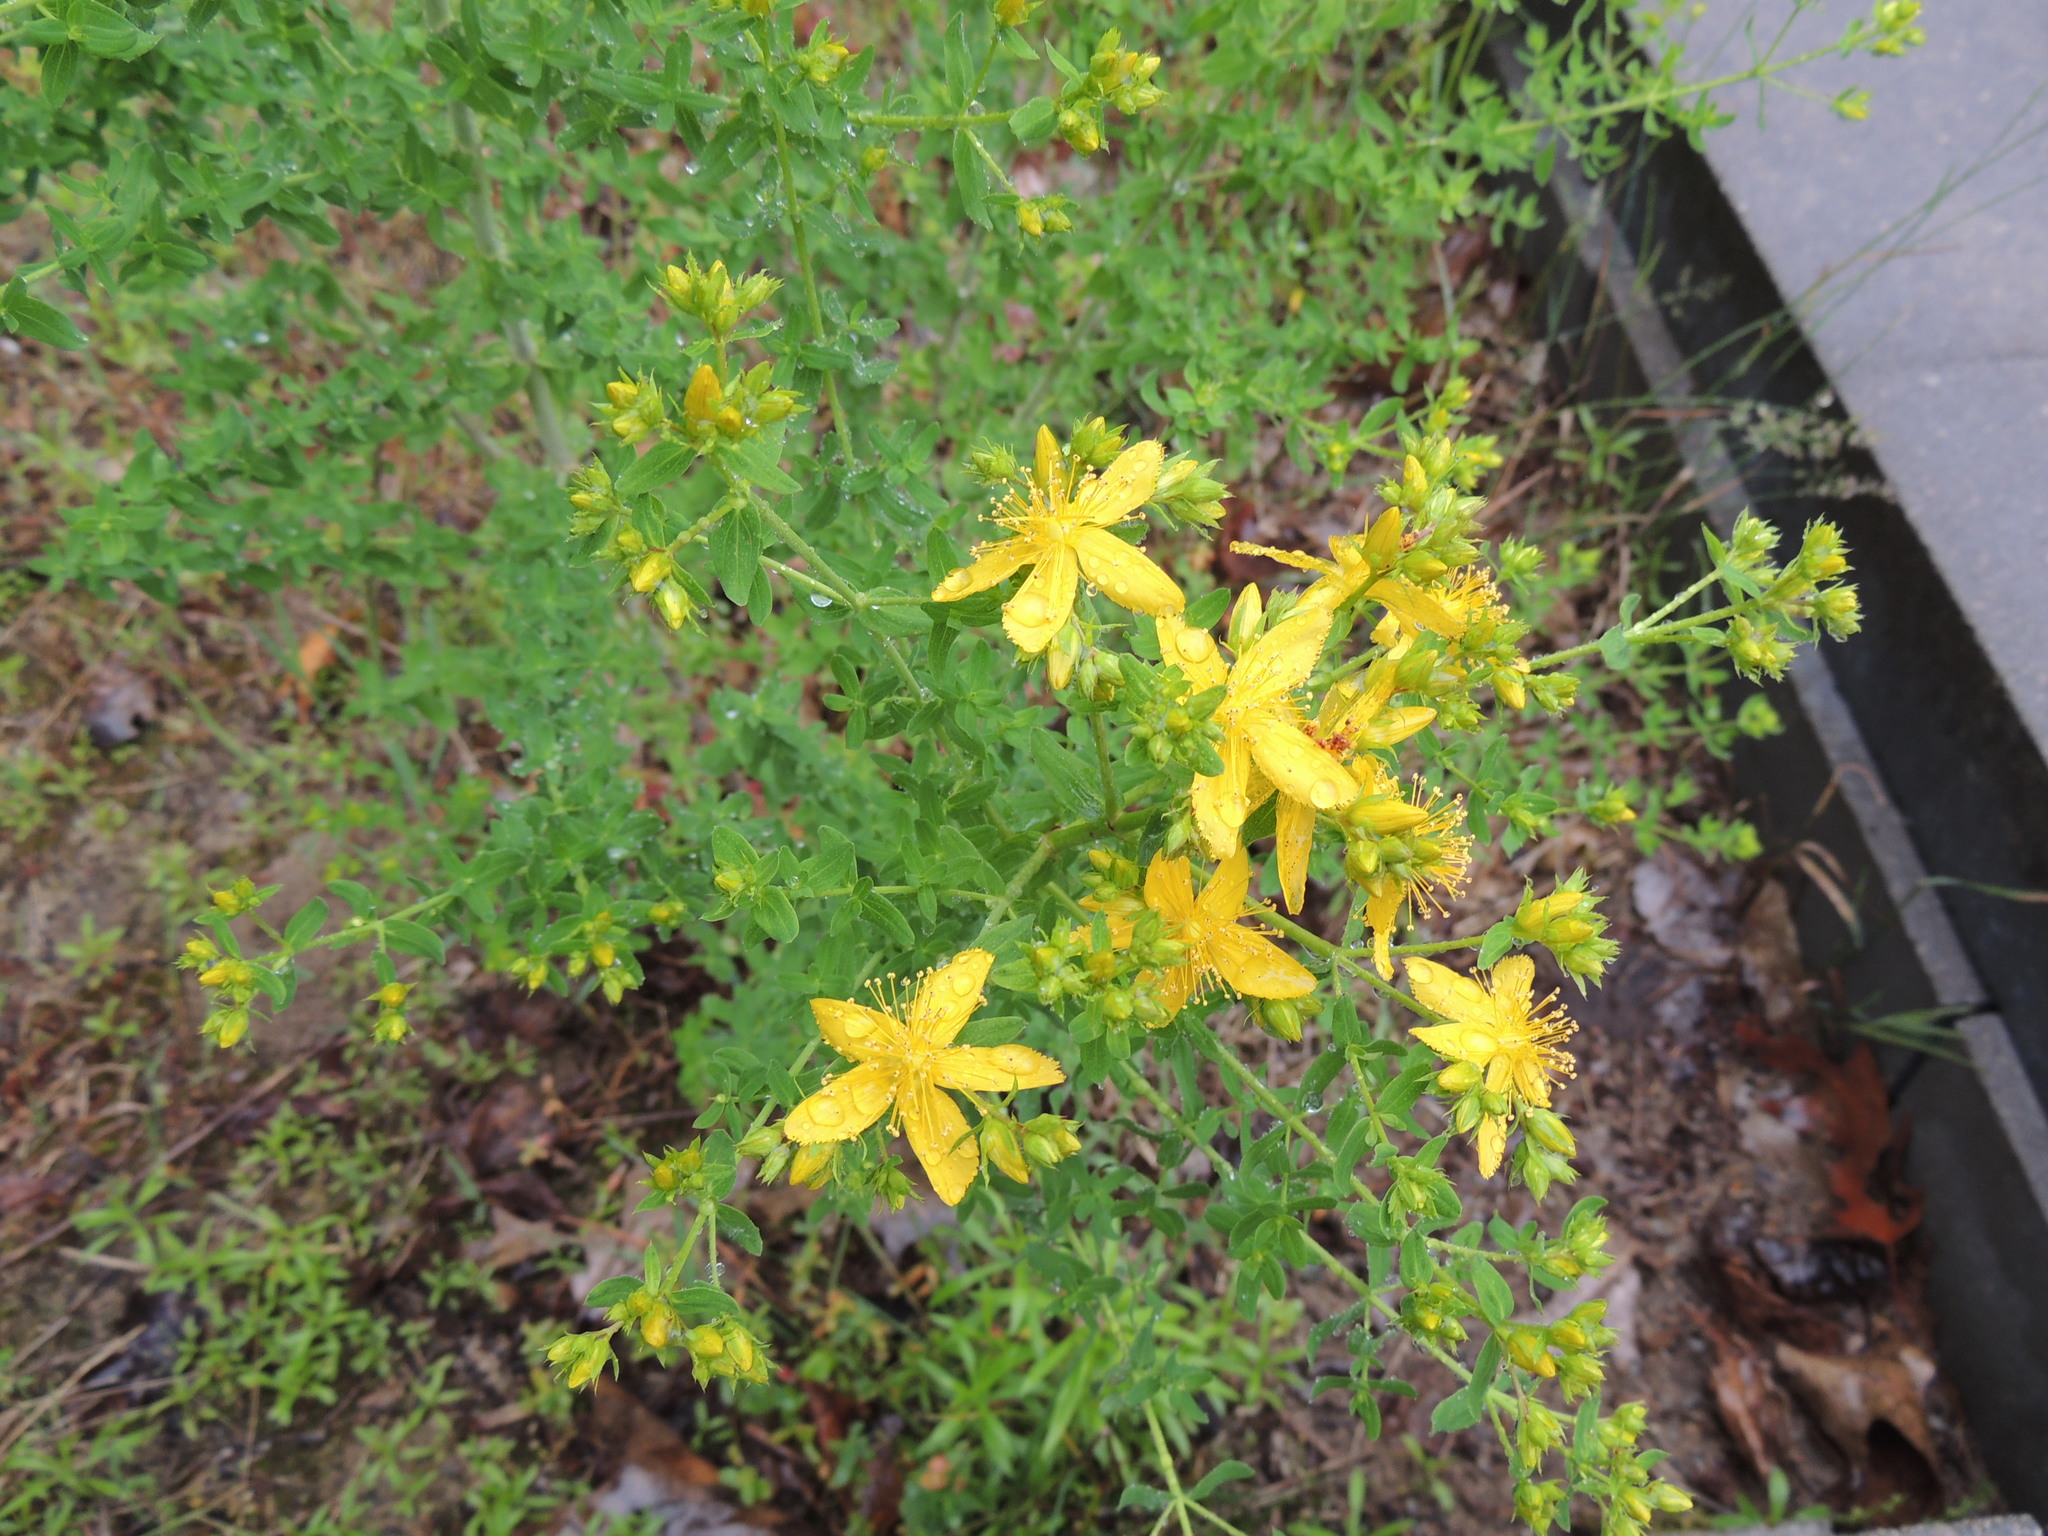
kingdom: Plantae
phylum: Tracheophyta
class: Magnoliopsida
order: Malpighiales
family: Hypericaceae
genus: Hypericum
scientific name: Hypericum perforatum
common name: Common st. johnswort
